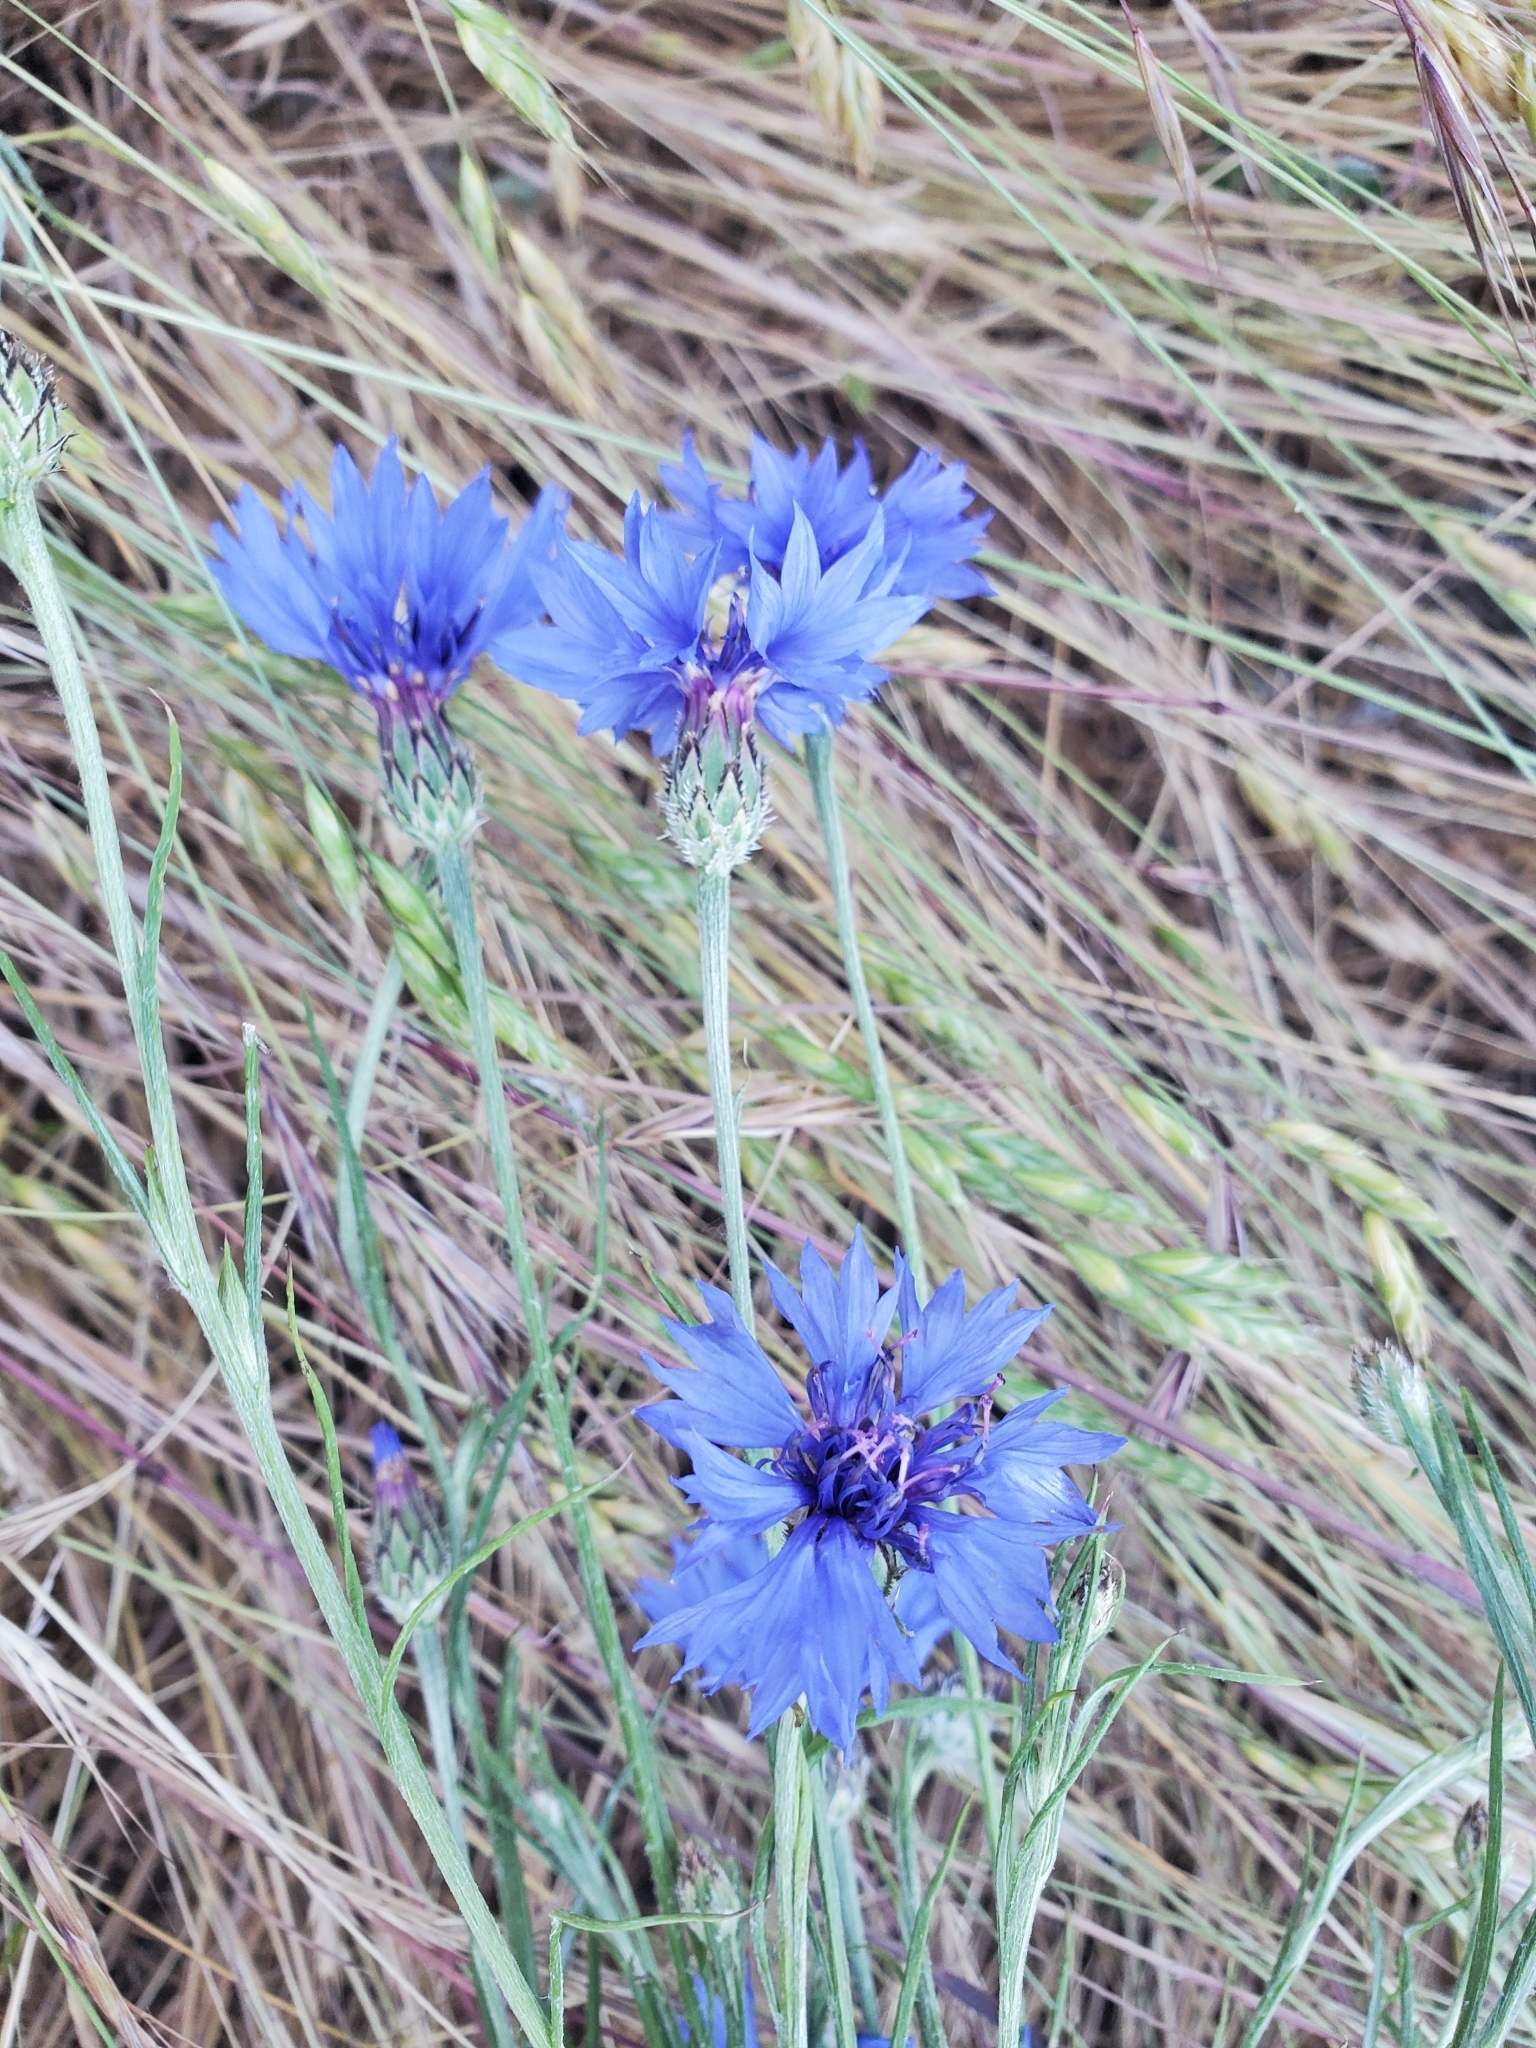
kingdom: Plantae
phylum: Tracheophyta
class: Magnoliopsida
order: Asterales
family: Asteraceae
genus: Centaurea
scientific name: Centaurea cyanus
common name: Cornflower
